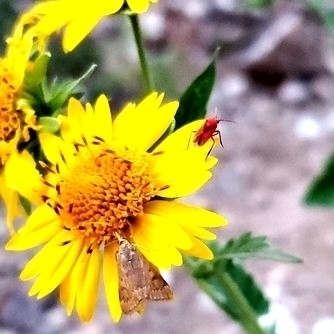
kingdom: Animalia
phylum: Arthropoda
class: Insecta
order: Hemiptera
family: Miridae
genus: Oncerometopus
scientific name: Oncerometopus nigriclavus
